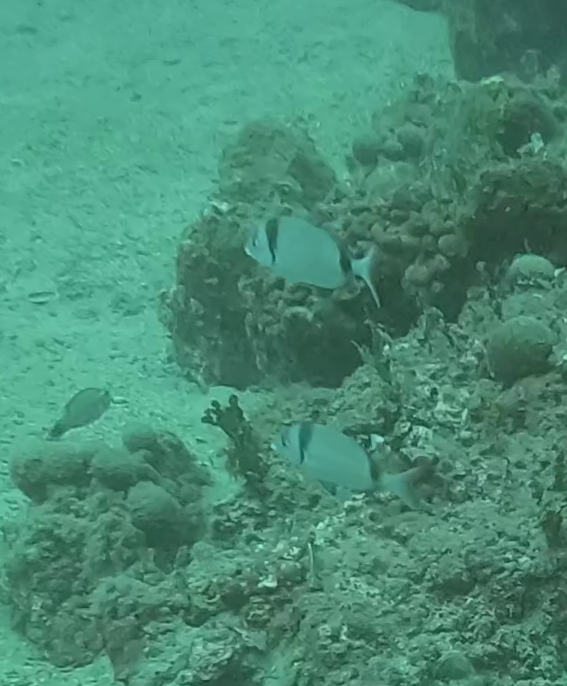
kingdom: Animalia
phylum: Chordata
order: Perciformes
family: Sparidae
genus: Diplodus
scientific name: Diplodus vulgaris
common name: Common two-banded seabream
